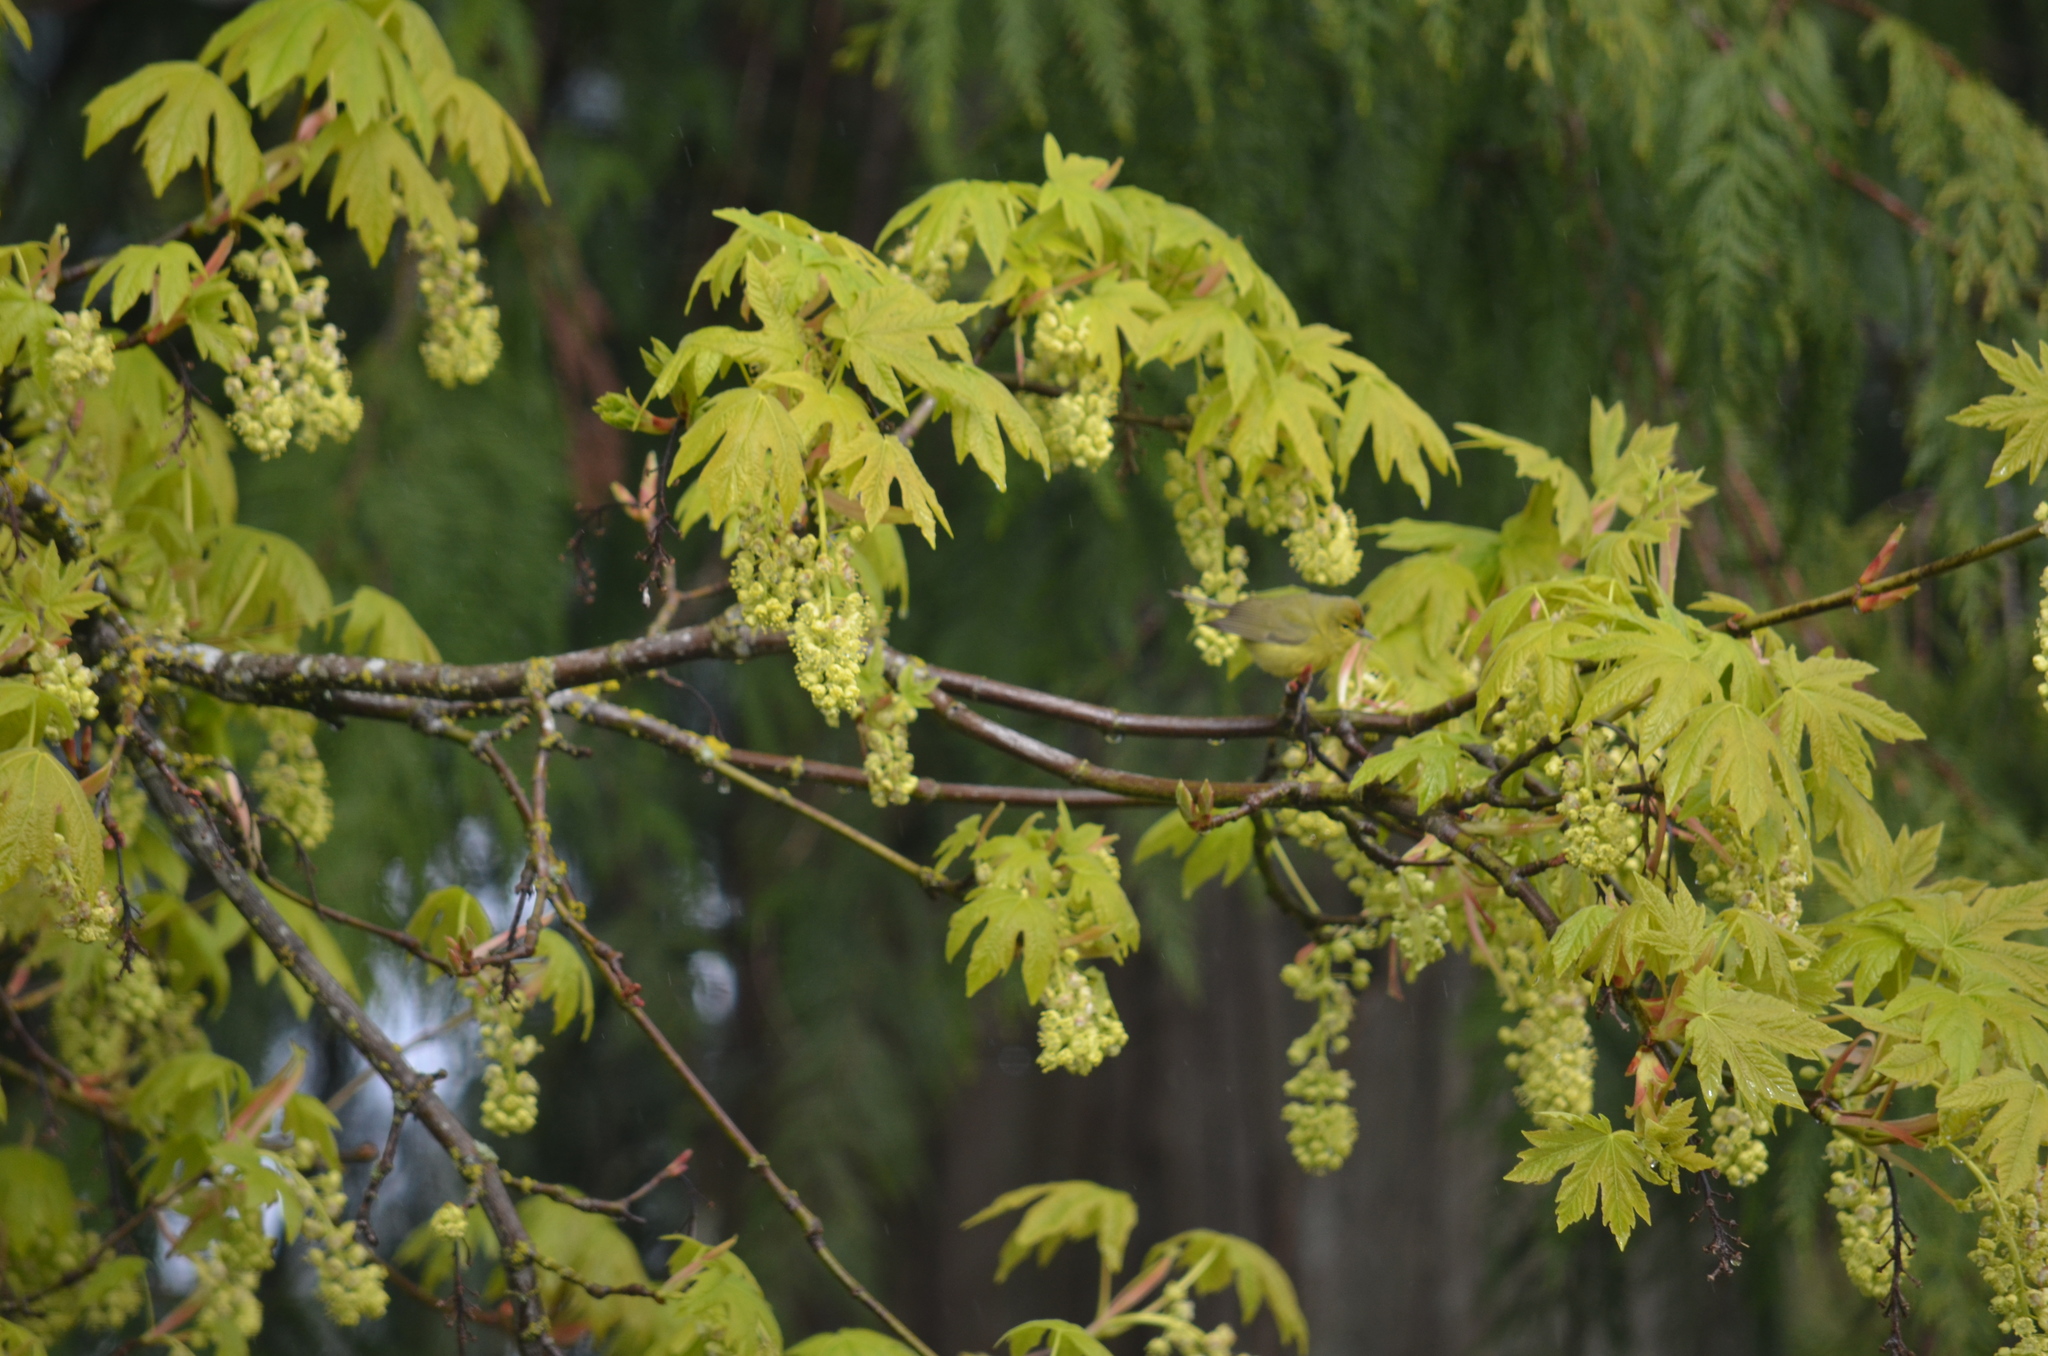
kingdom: Animalia
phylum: Chordata
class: Aves
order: Passeriformes
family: Parulidae
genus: Leiothlypis
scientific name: Leiothlypis celata
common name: Orange-crowned warbler
